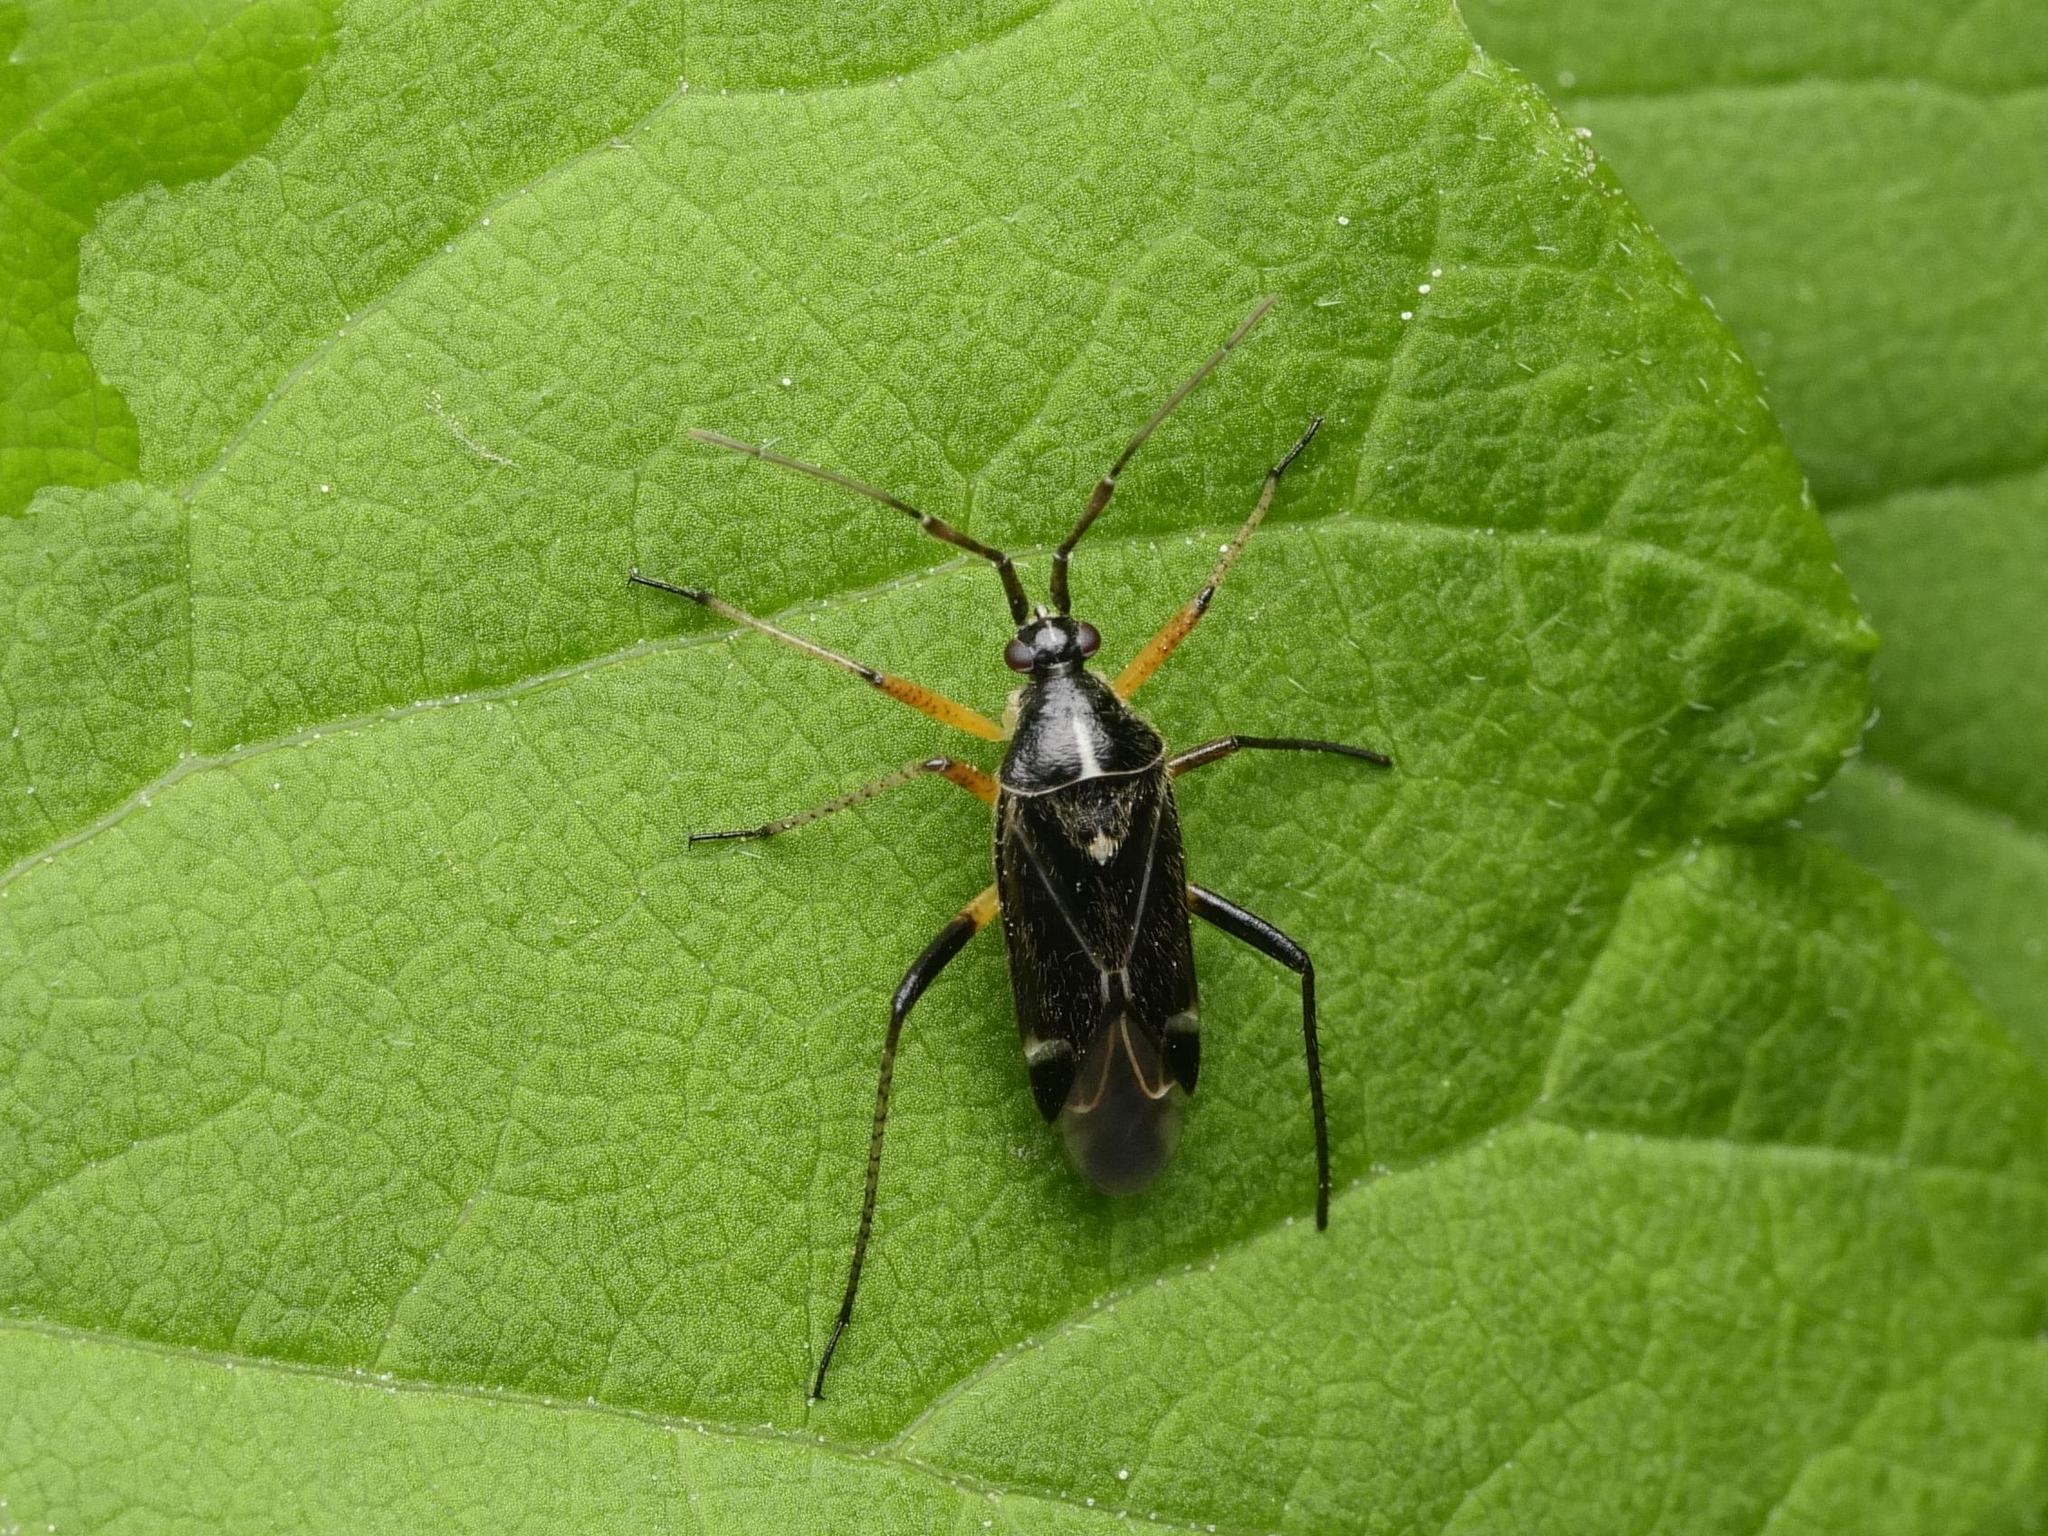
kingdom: Animalia
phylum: Arthropoda
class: Insecta
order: Hemiptera
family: Miridae
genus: Harpocera
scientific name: Harpocera thoracica
